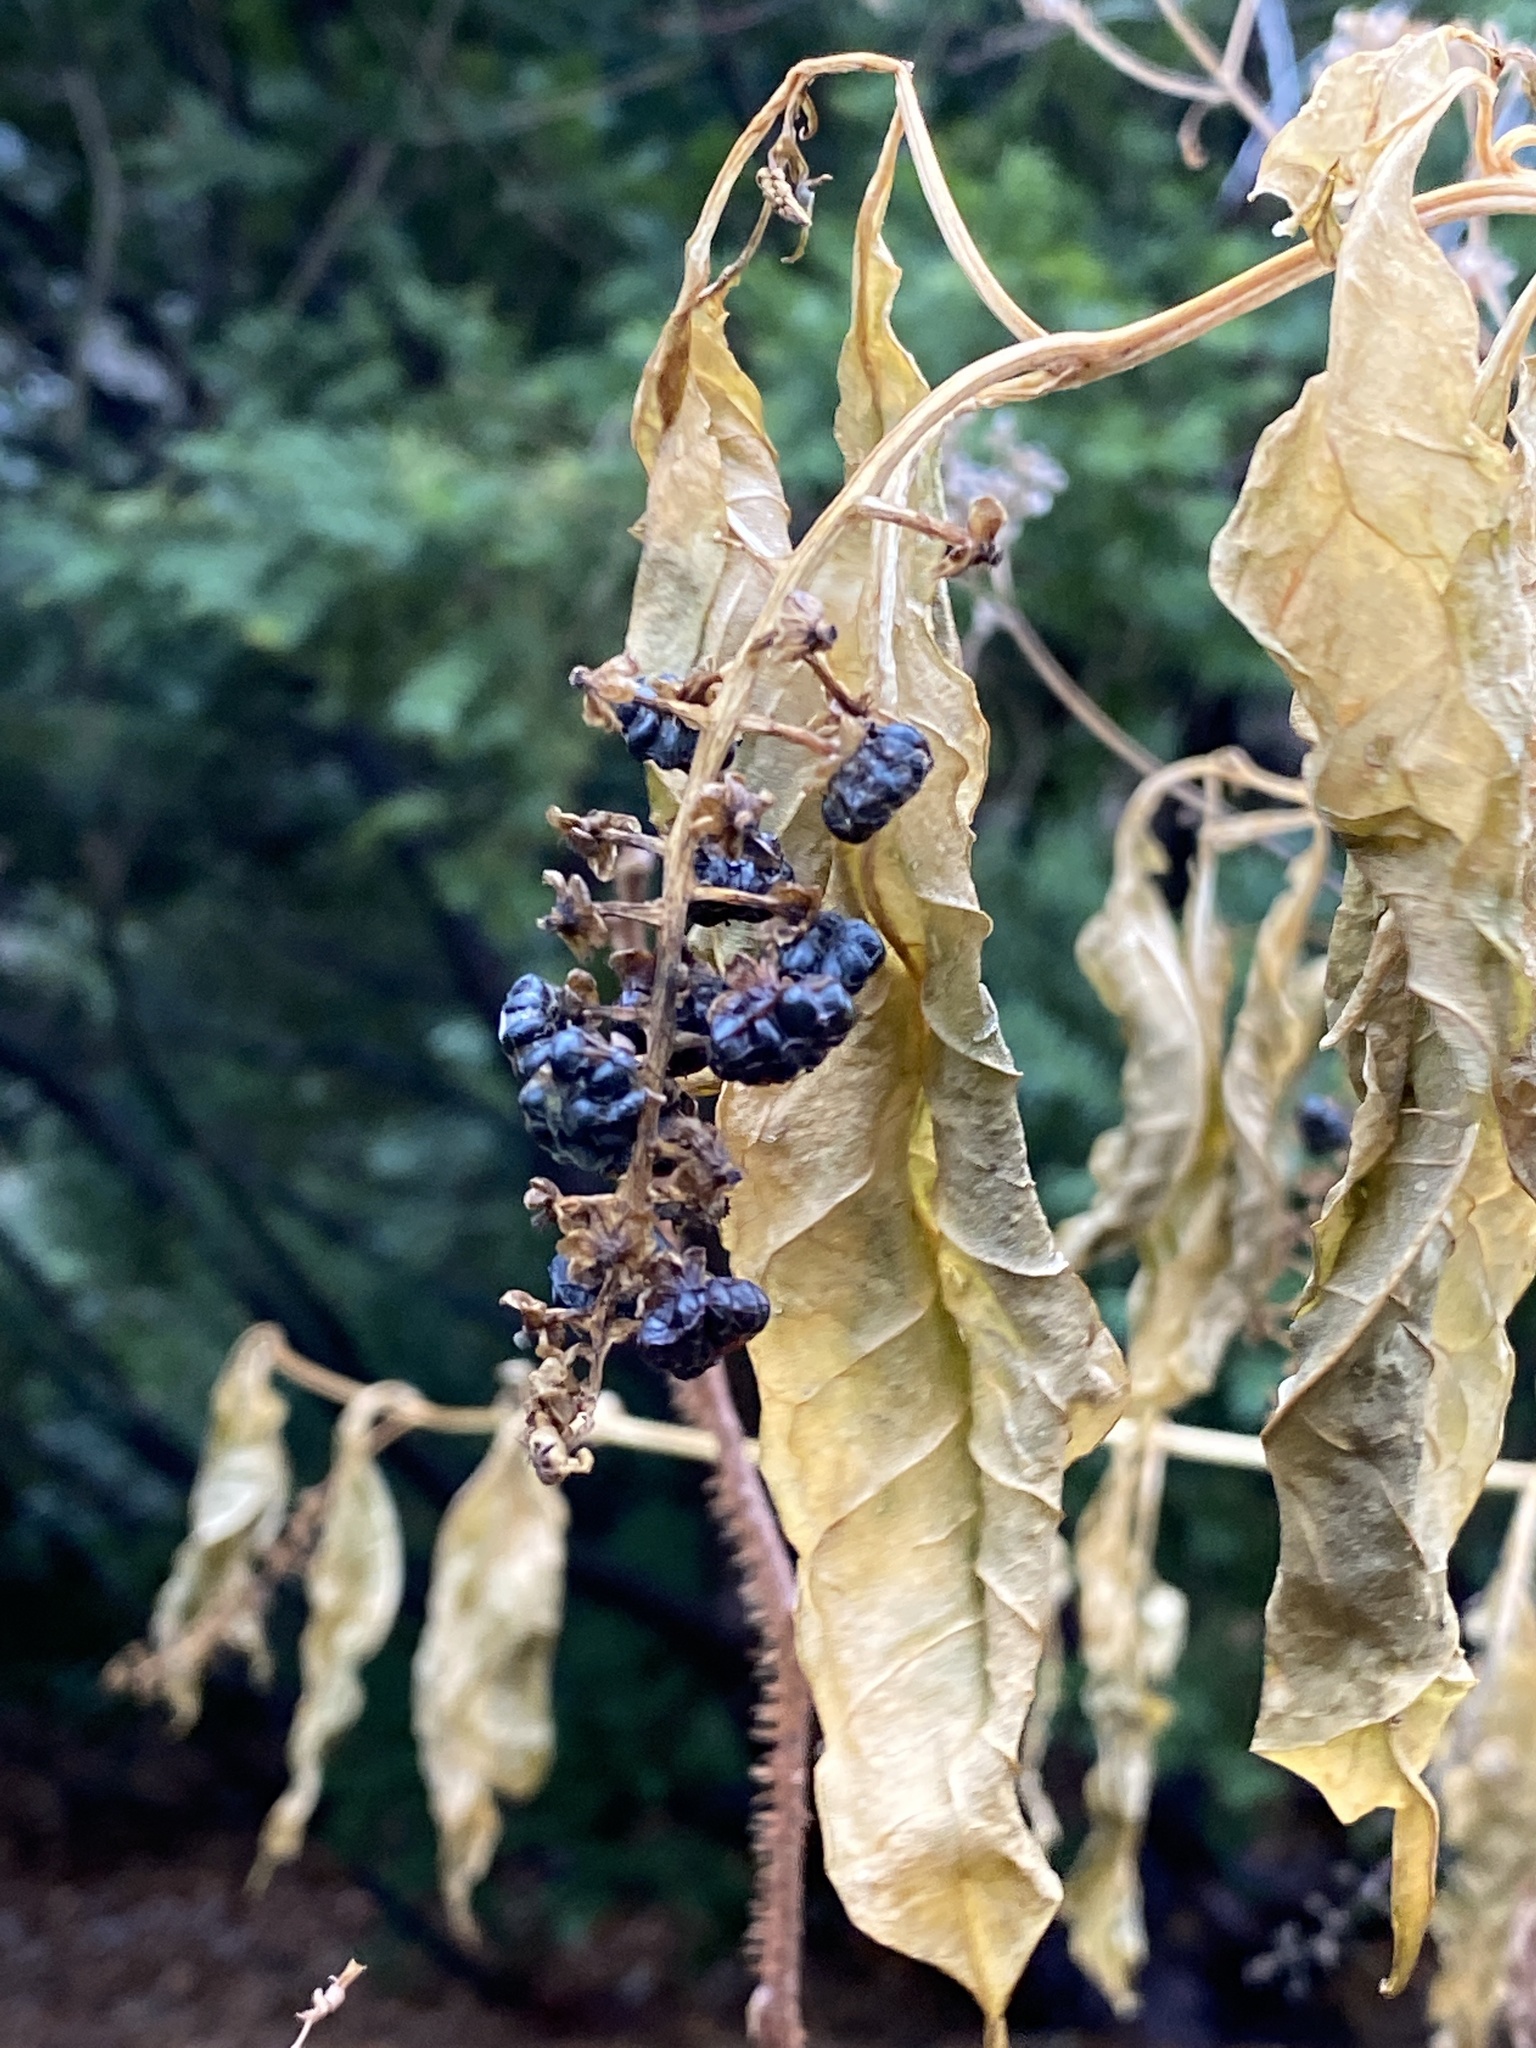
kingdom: Plantae
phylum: Tracheophyta
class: Magnoliopsida
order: Caryophyllales
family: Phytolaccaceae
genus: Phytolacca
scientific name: Phytolacca americana
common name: American pokeweed
